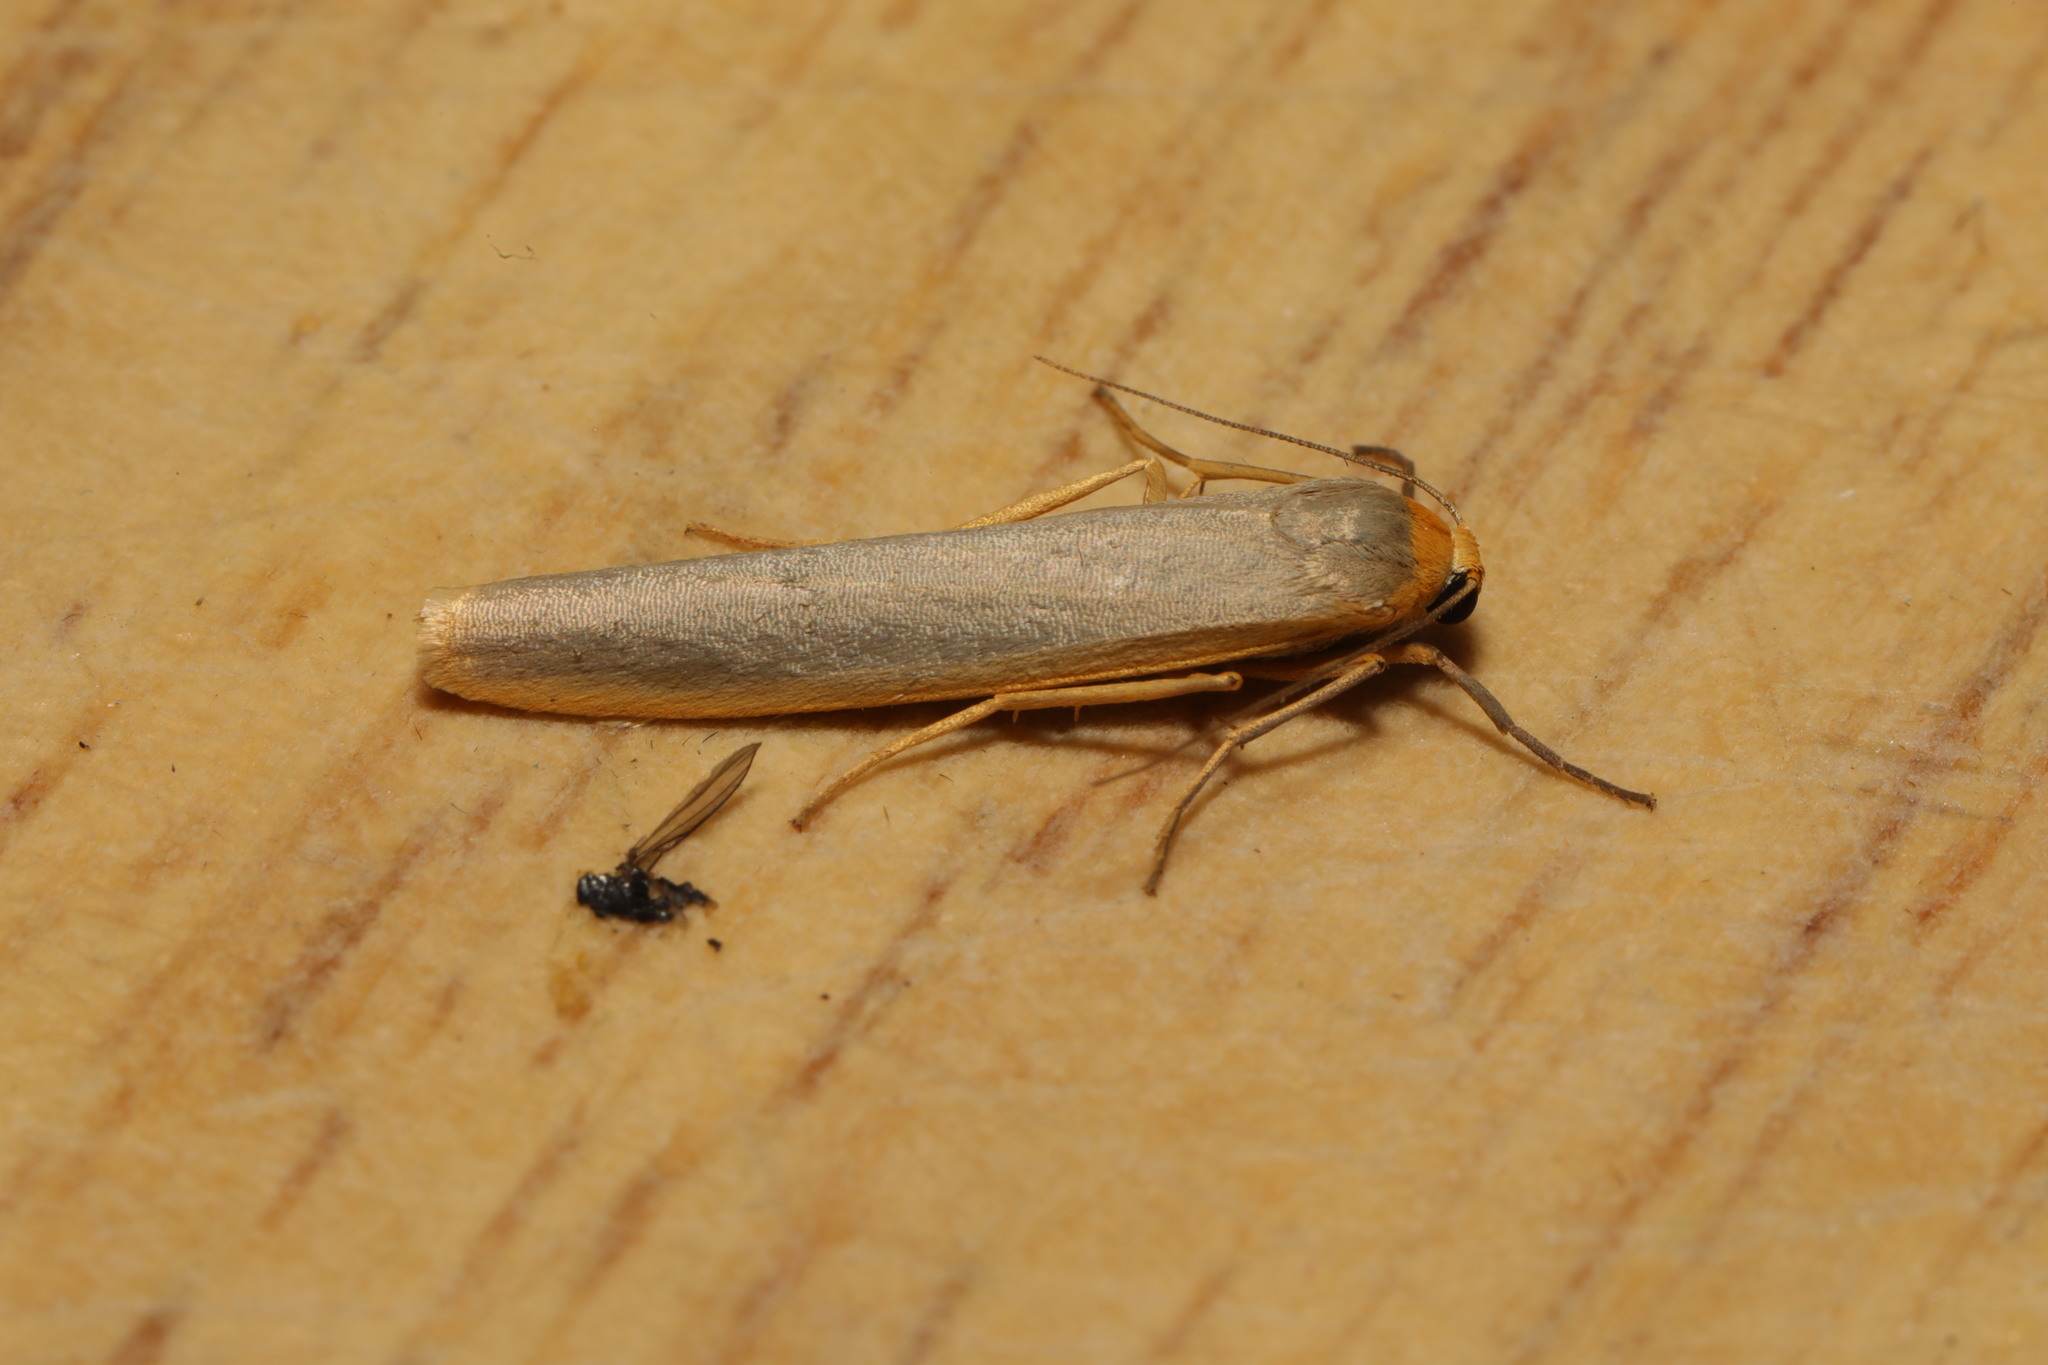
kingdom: Animalia
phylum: Arthropoda
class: Insecta
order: Lepidoptera
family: Erebidae
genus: Manulea
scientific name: Manulea complana
